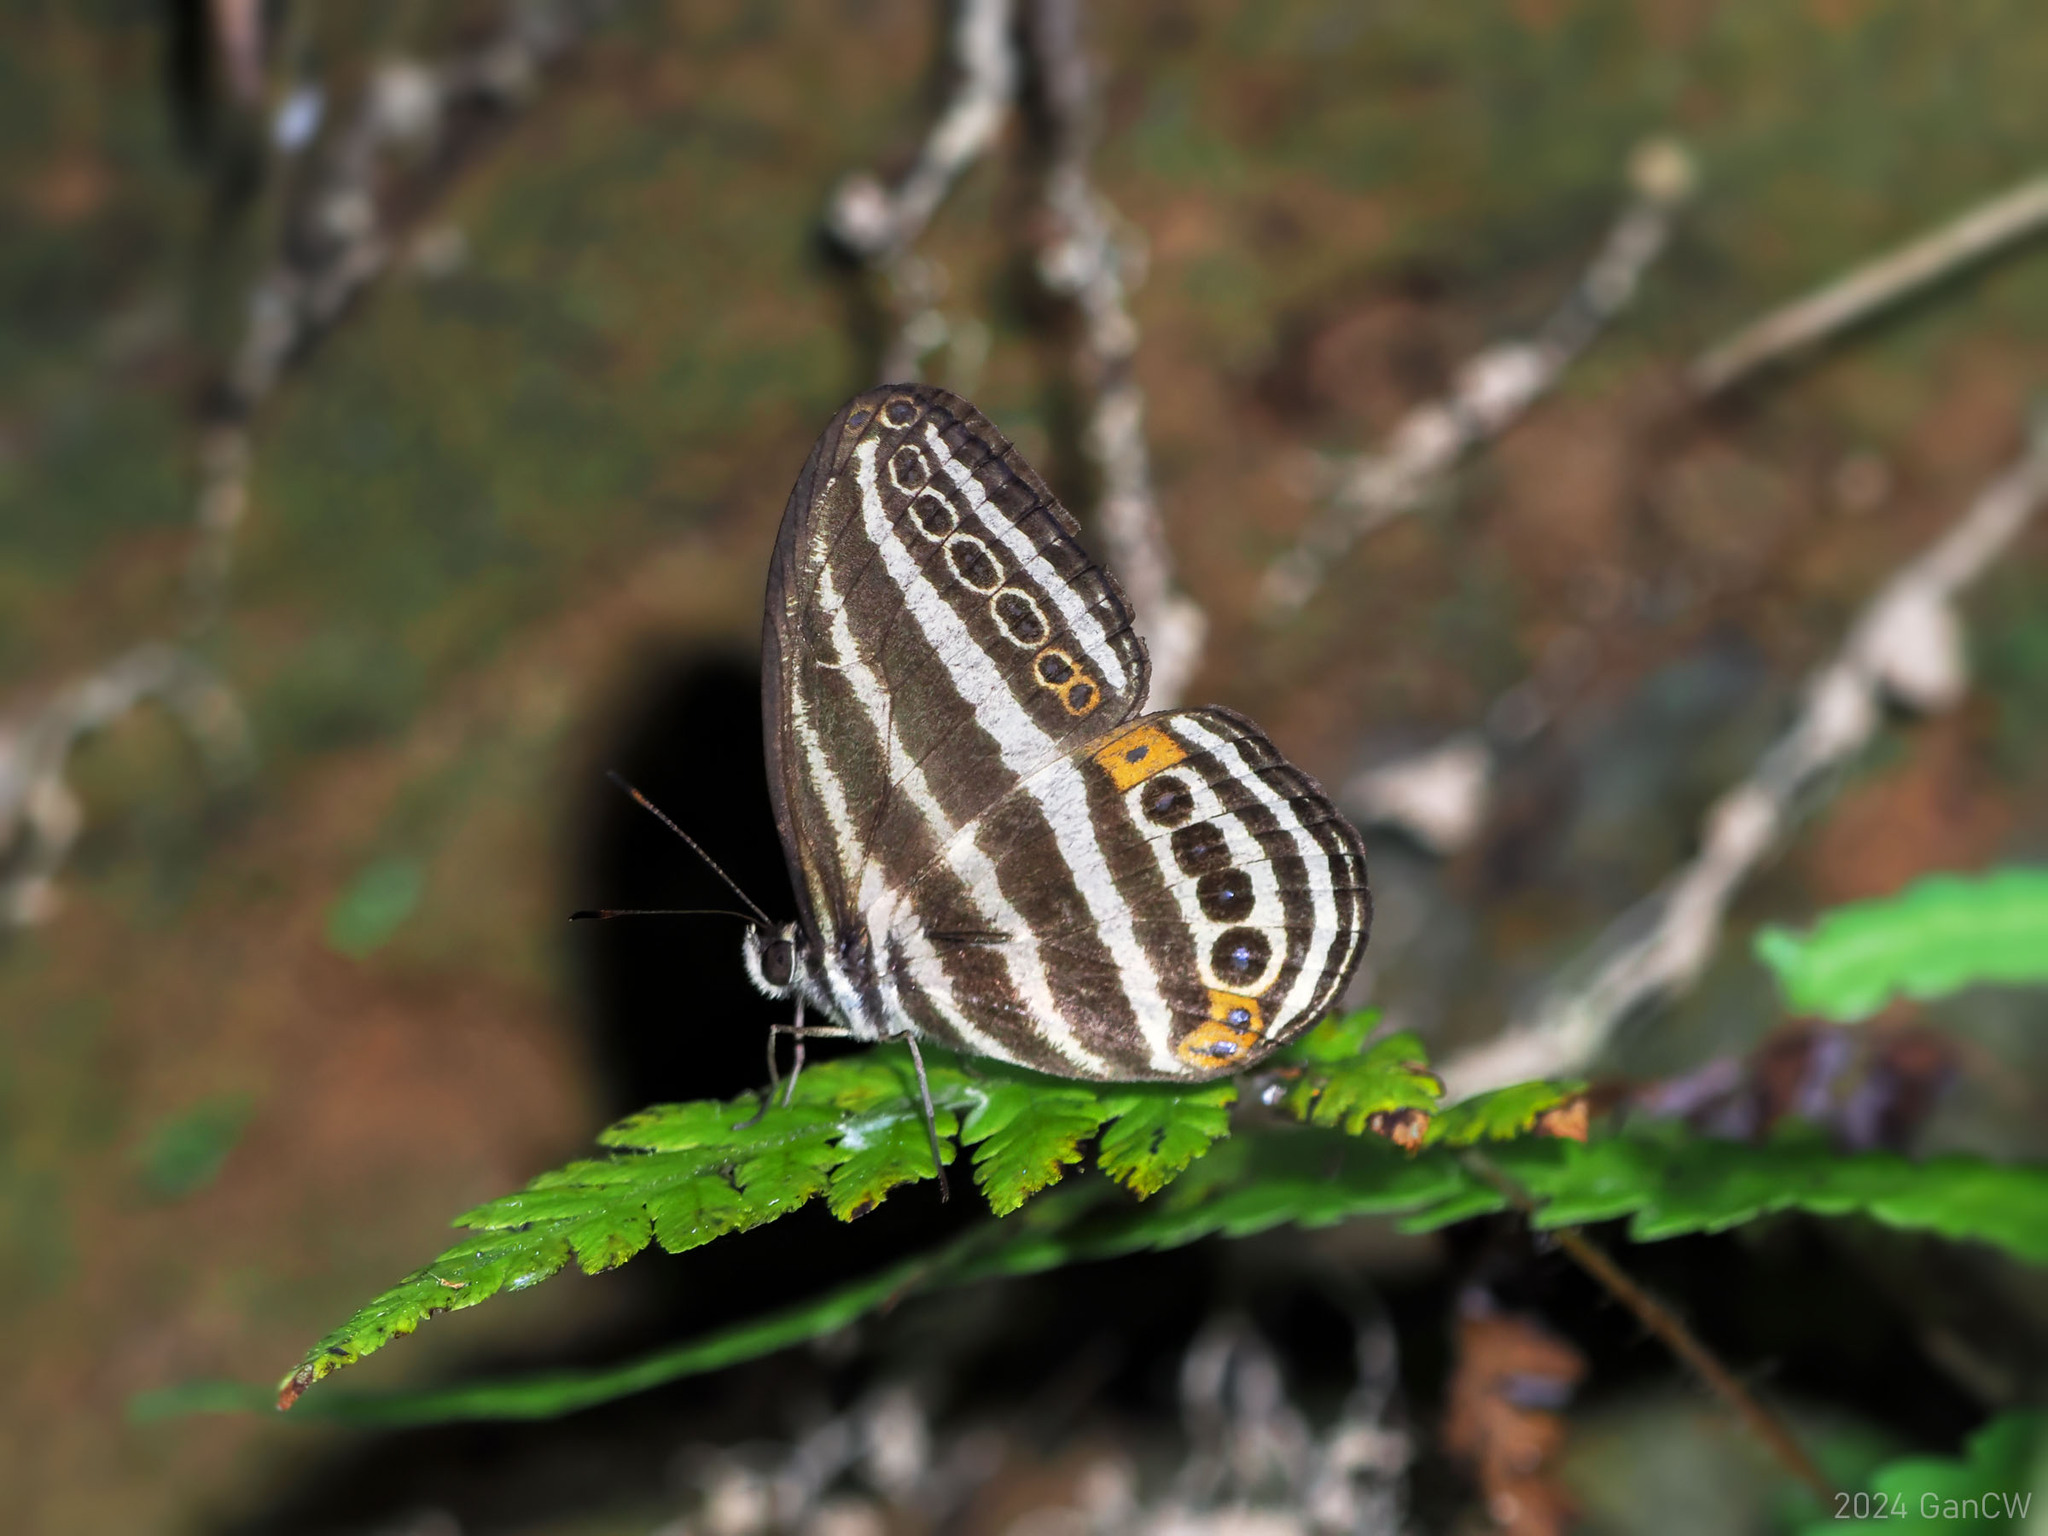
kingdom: Animalia
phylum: Arthropoda
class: Insecta
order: Lepidoptera
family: Nymphalidae
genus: Ragadia
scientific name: Ragadia luzonia
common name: Luzon striped ringlet
